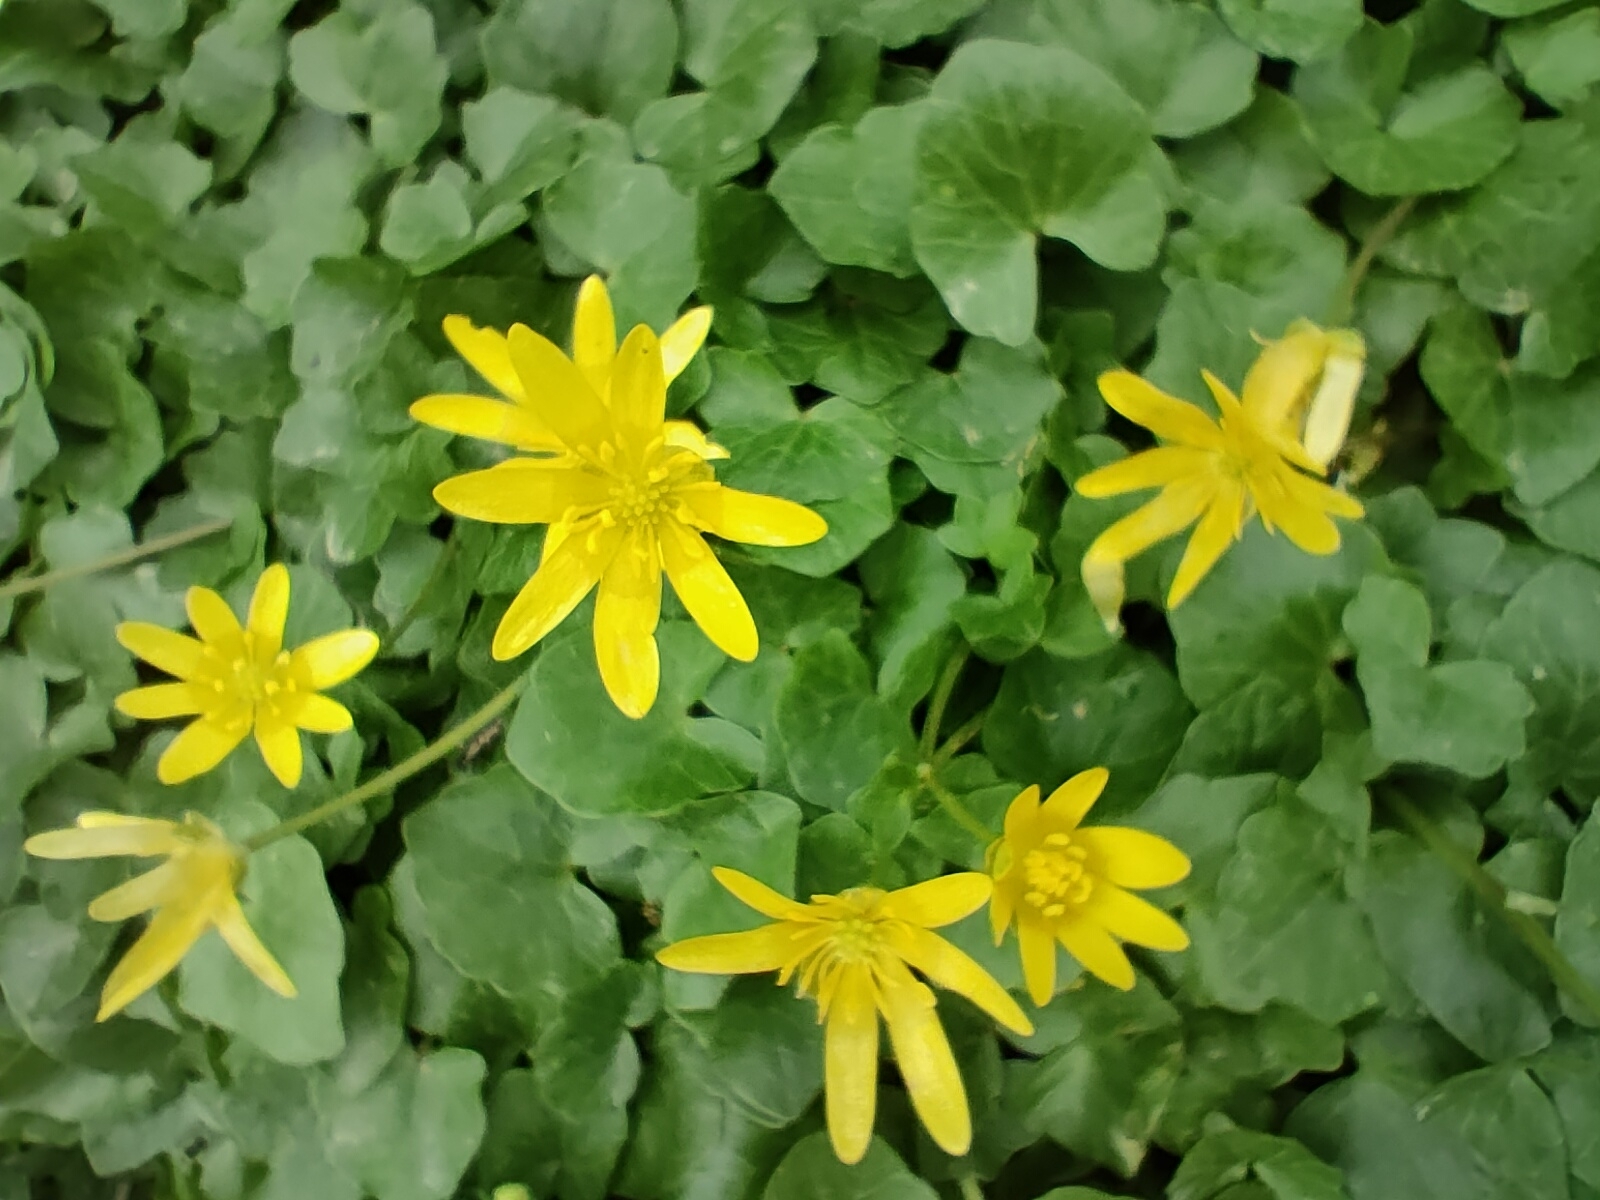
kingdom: Plantae
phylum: Tracheophyta
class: Magnoliopsida
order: Ranunculales
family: Ranunculaceae
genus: Ficaria
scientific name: Ficaria verna
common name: Lesser celandine
